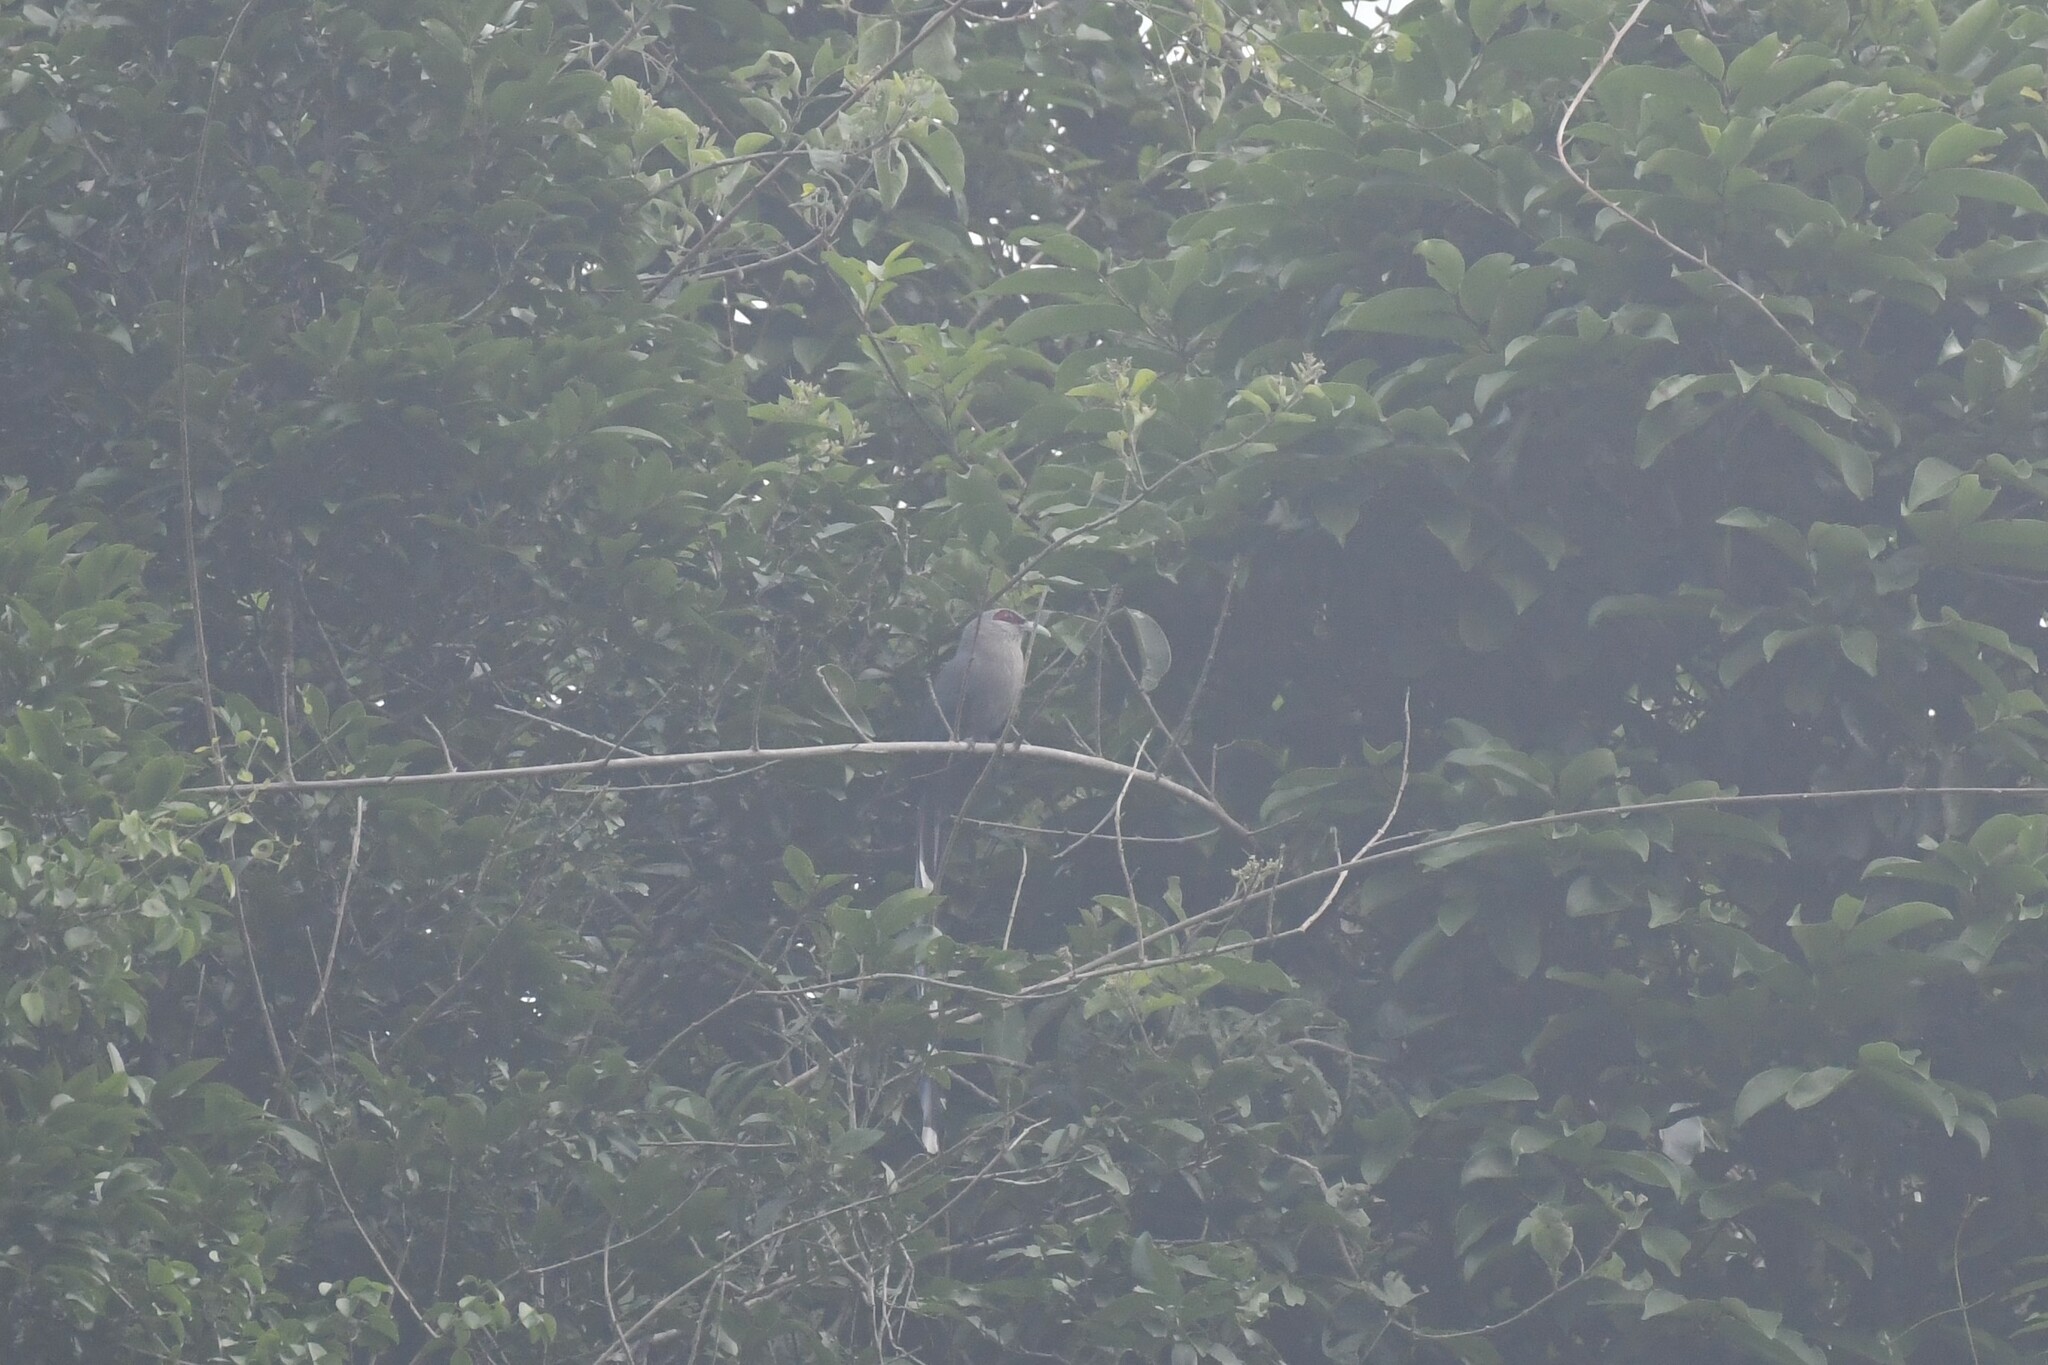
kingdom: Animalia
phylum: Chordata
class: Aves
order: Cuculiformes
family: Cuculidae
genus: Rhopodytes
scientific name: Rhopodytes tristis
